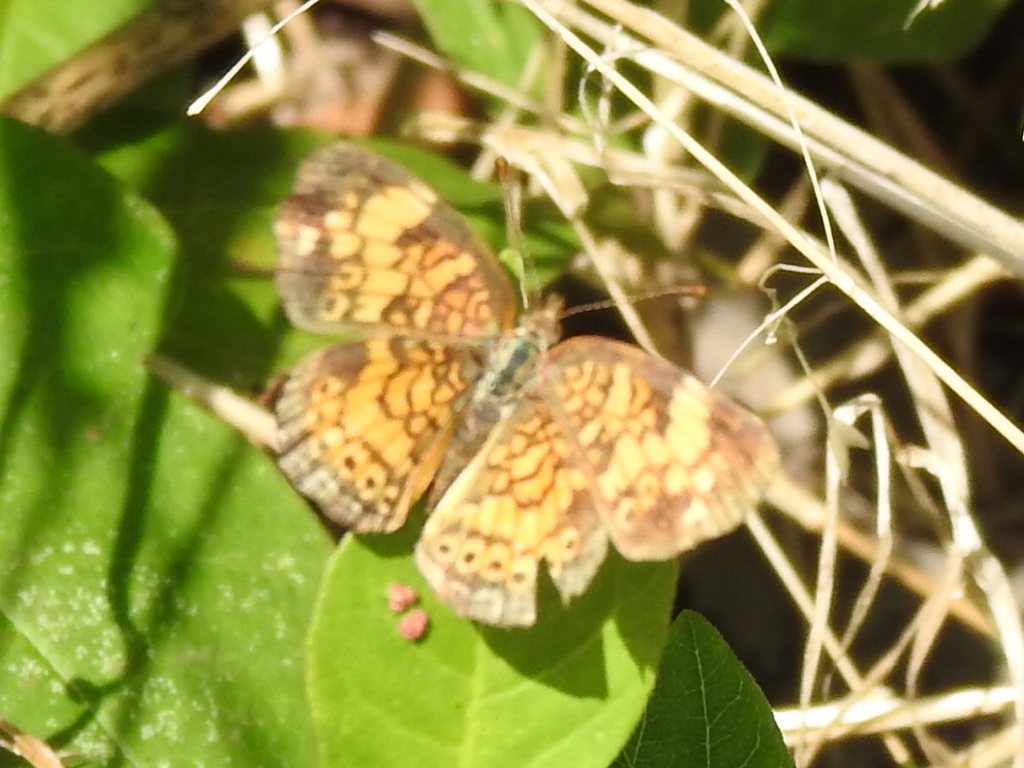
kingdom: Animalia
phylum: Arthropoda
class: Insecta
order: Lepidoptera
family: Nymphalidae
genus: Phyciodes
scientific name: Phyciodes tharos
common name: Pearl crescent
